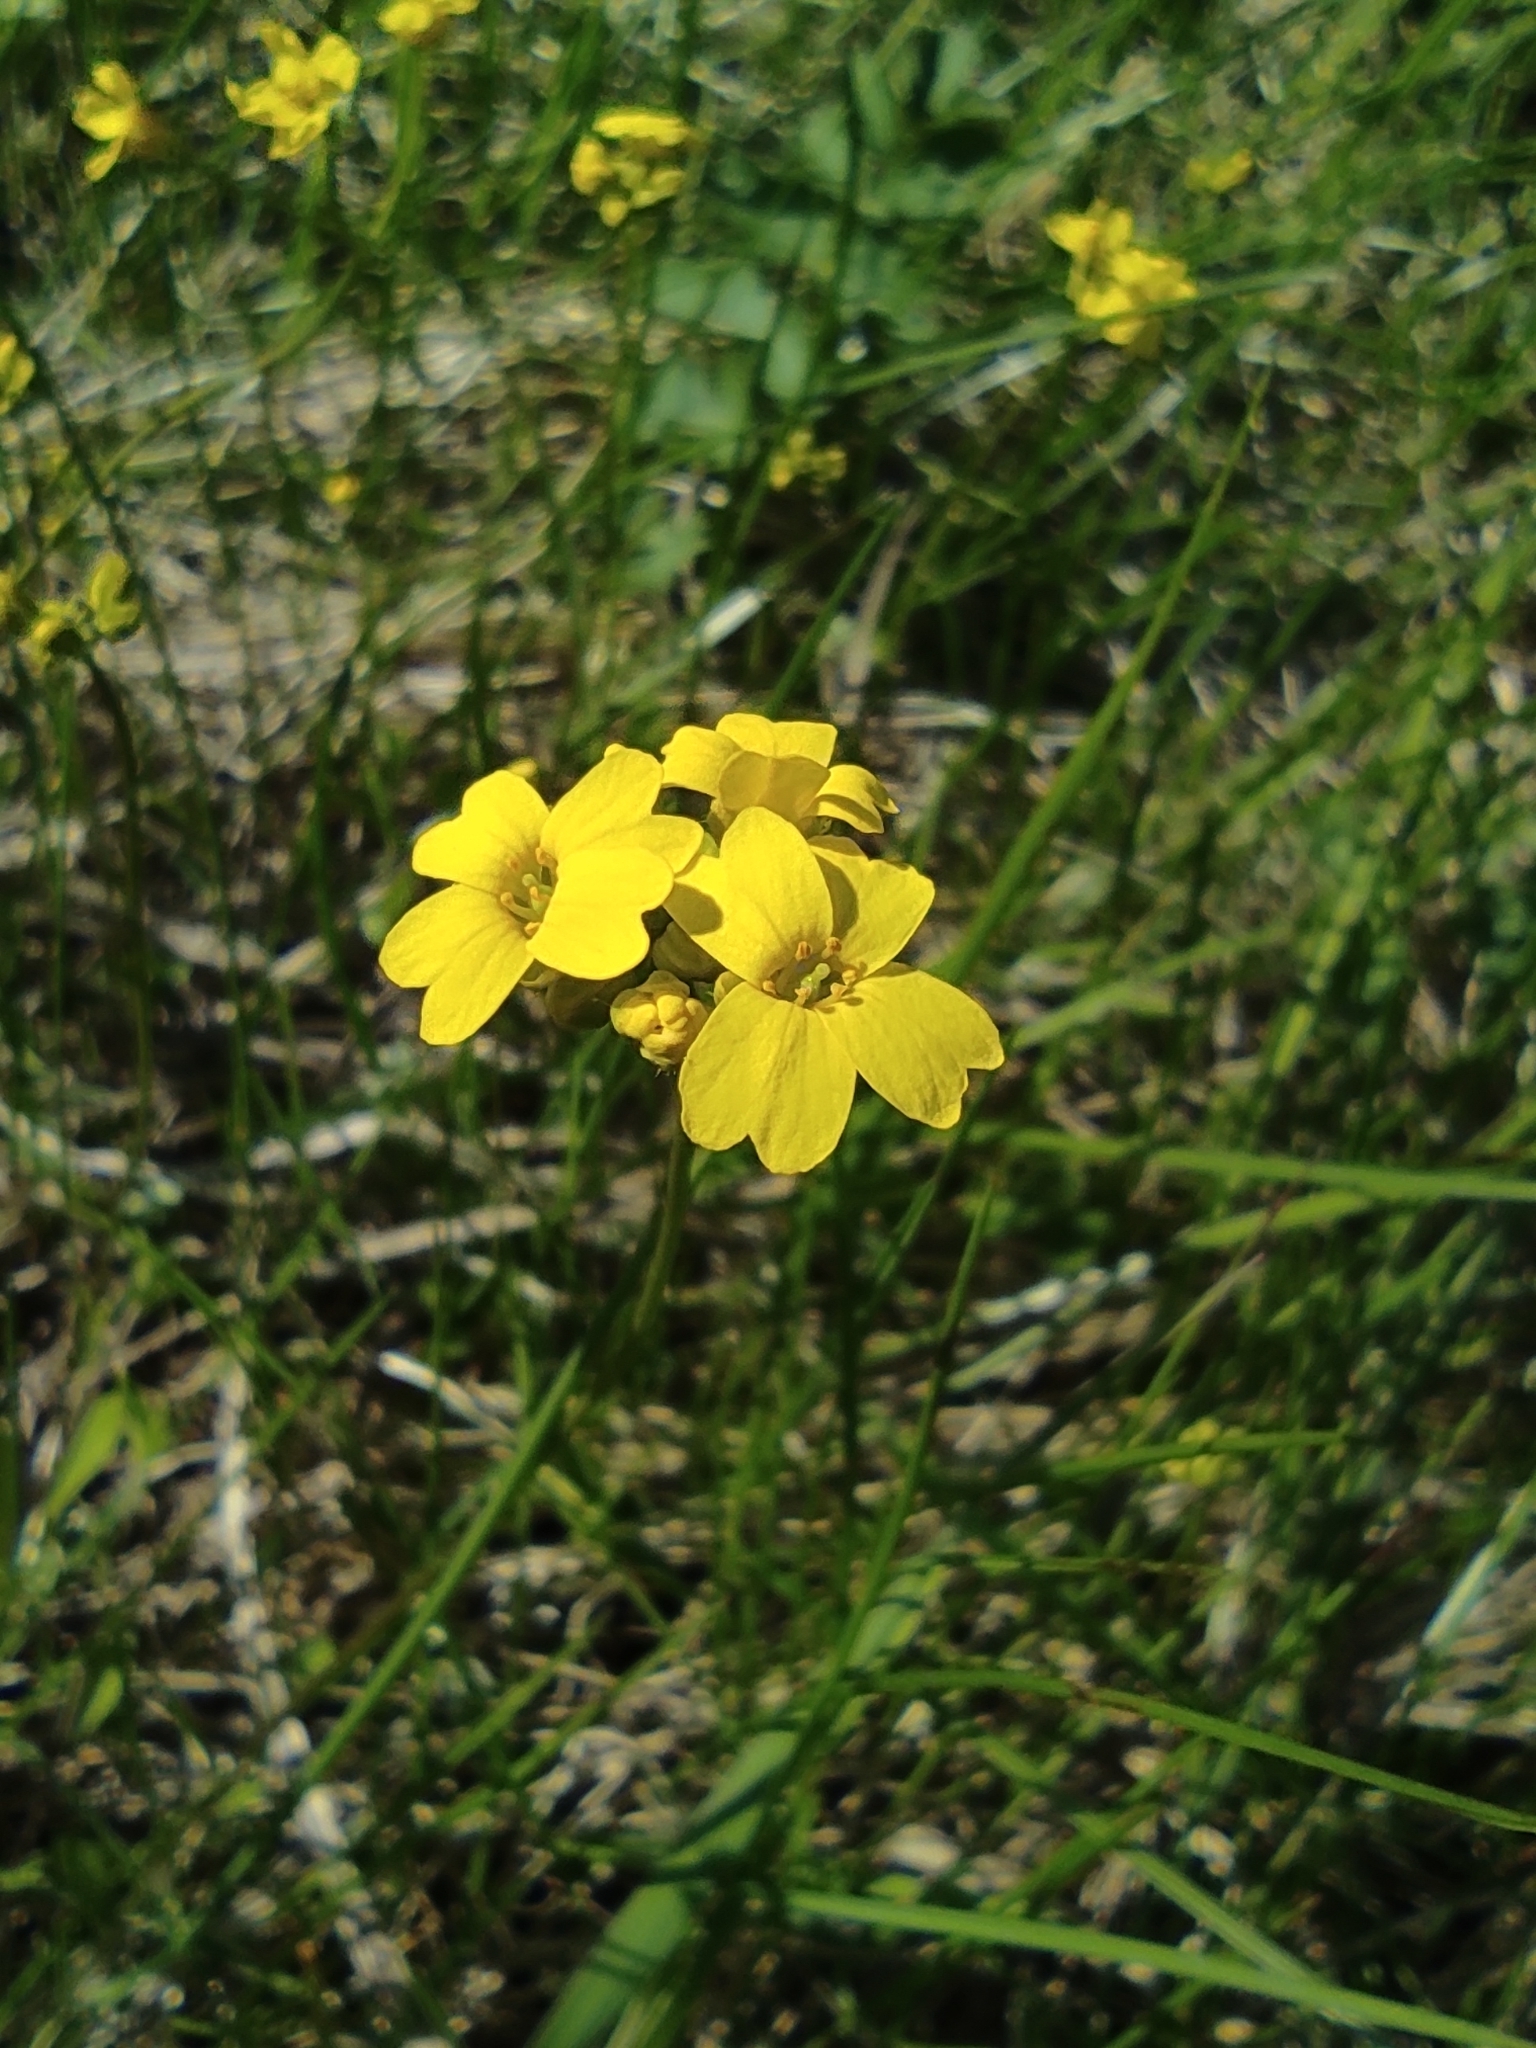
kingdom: Plantae
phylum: Tracheophyta
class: Magnoliopsida
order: Brassicales
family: Brassicaceae
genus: Draba
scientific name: Draba sibirica
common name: Siberian draba
